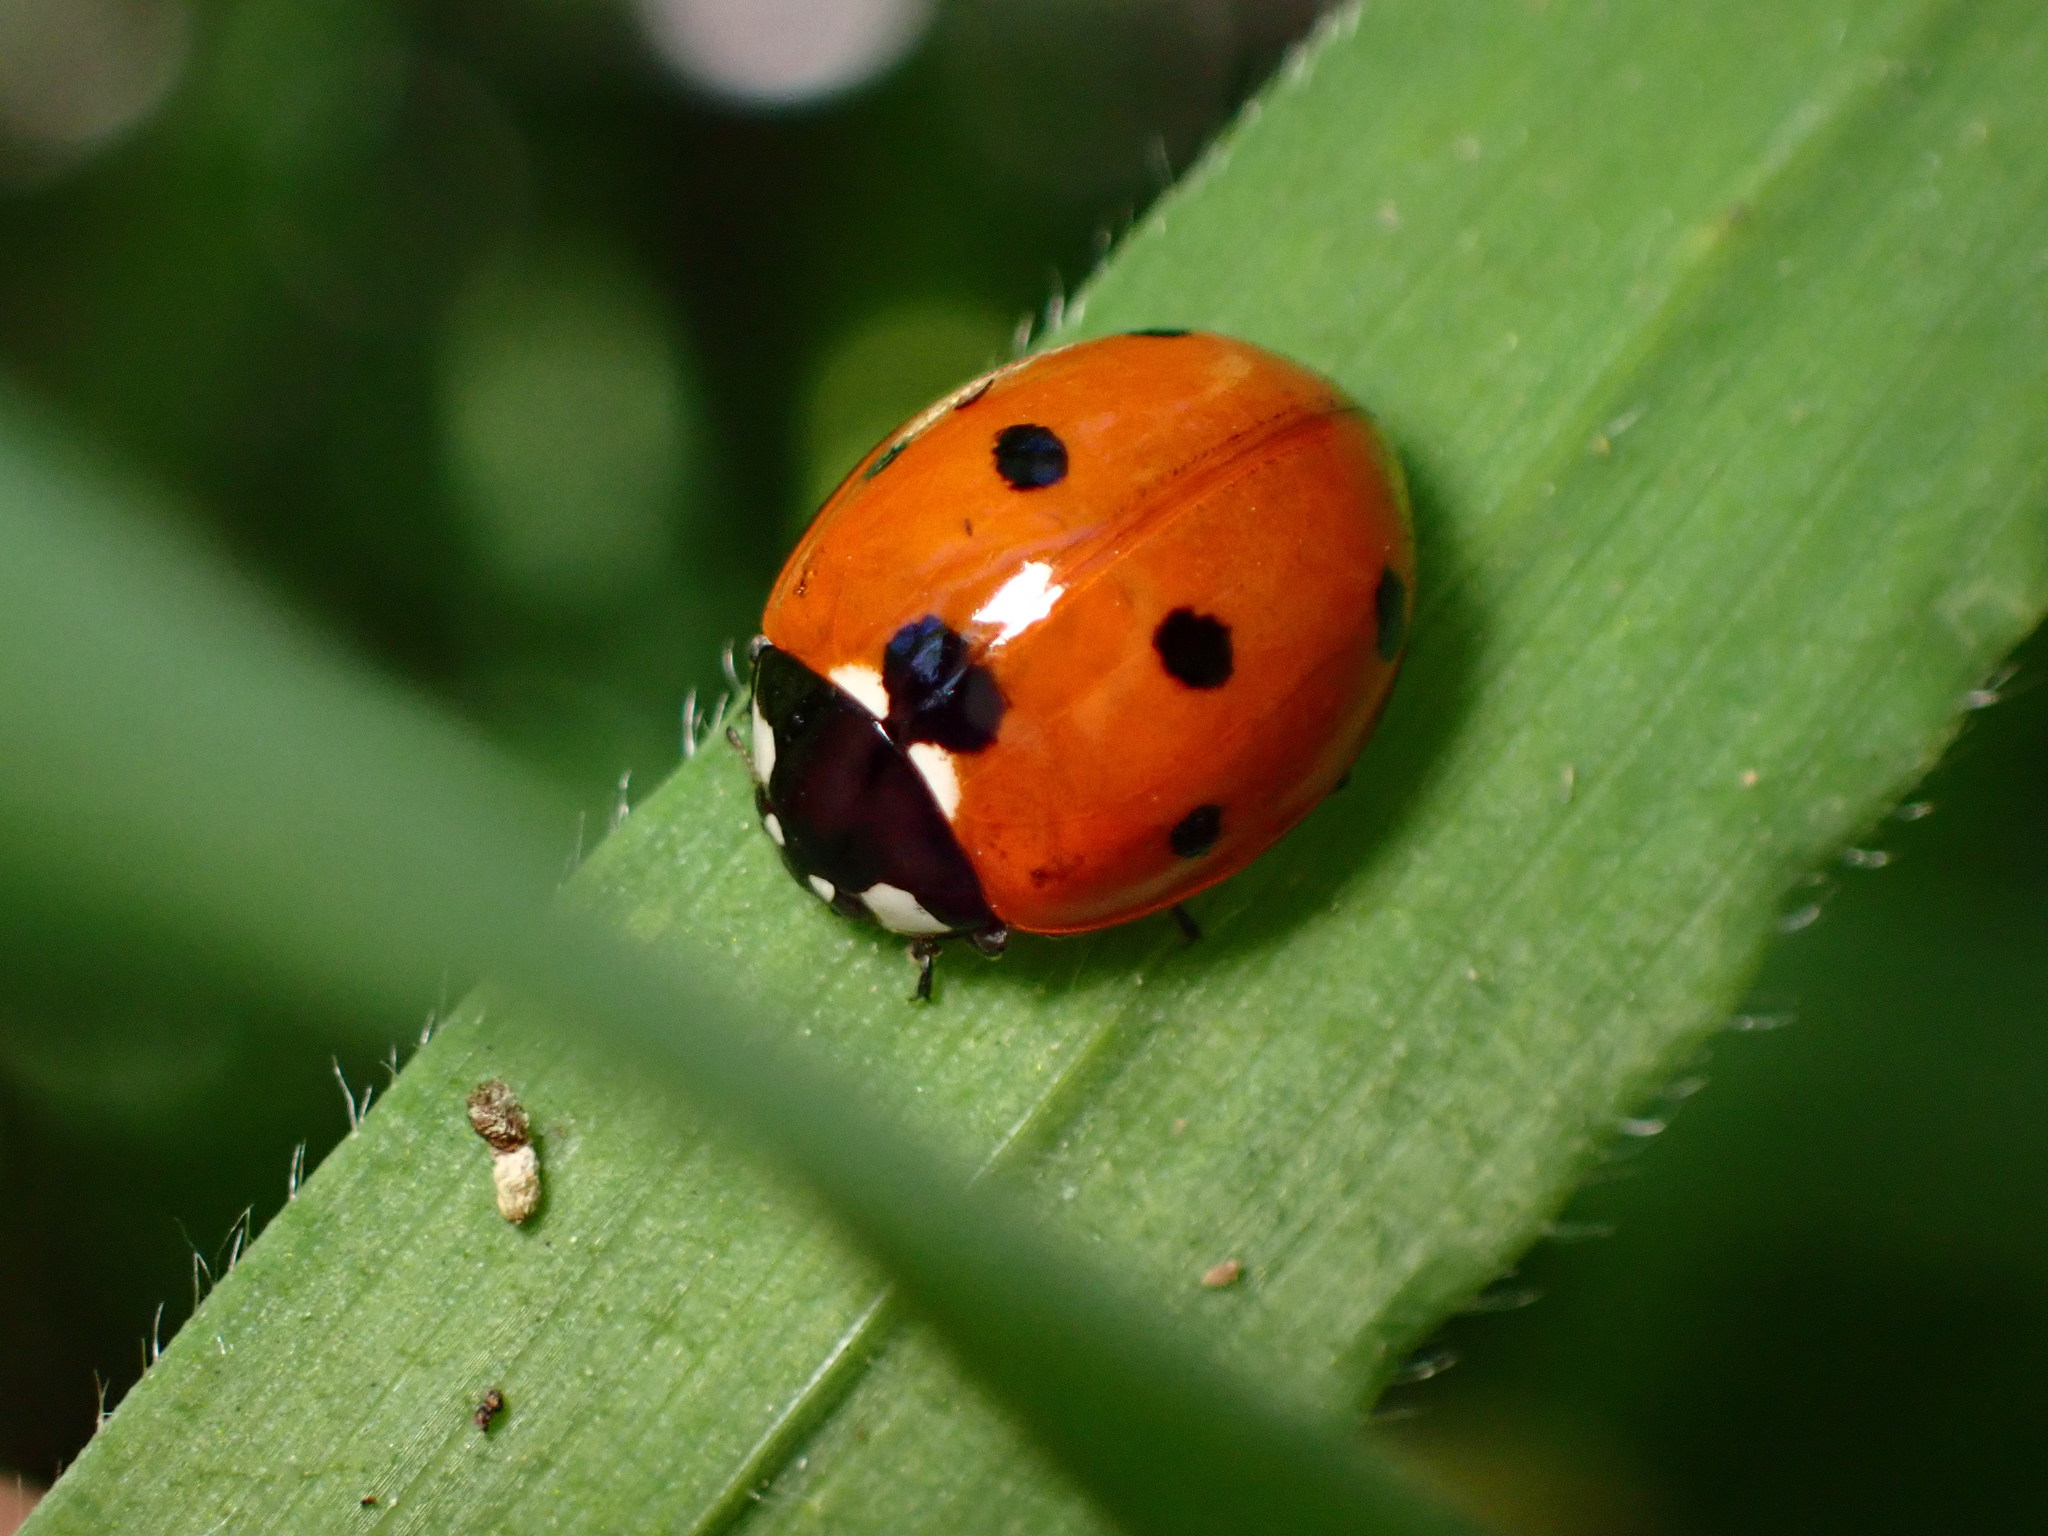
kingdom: Animalia
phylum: Arthropoda
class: Insecta
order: Coleoptera
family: Coccinellidae
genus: Coccinella
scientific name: Coccinella septempunctata
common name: Sevenspotted lady beetle
